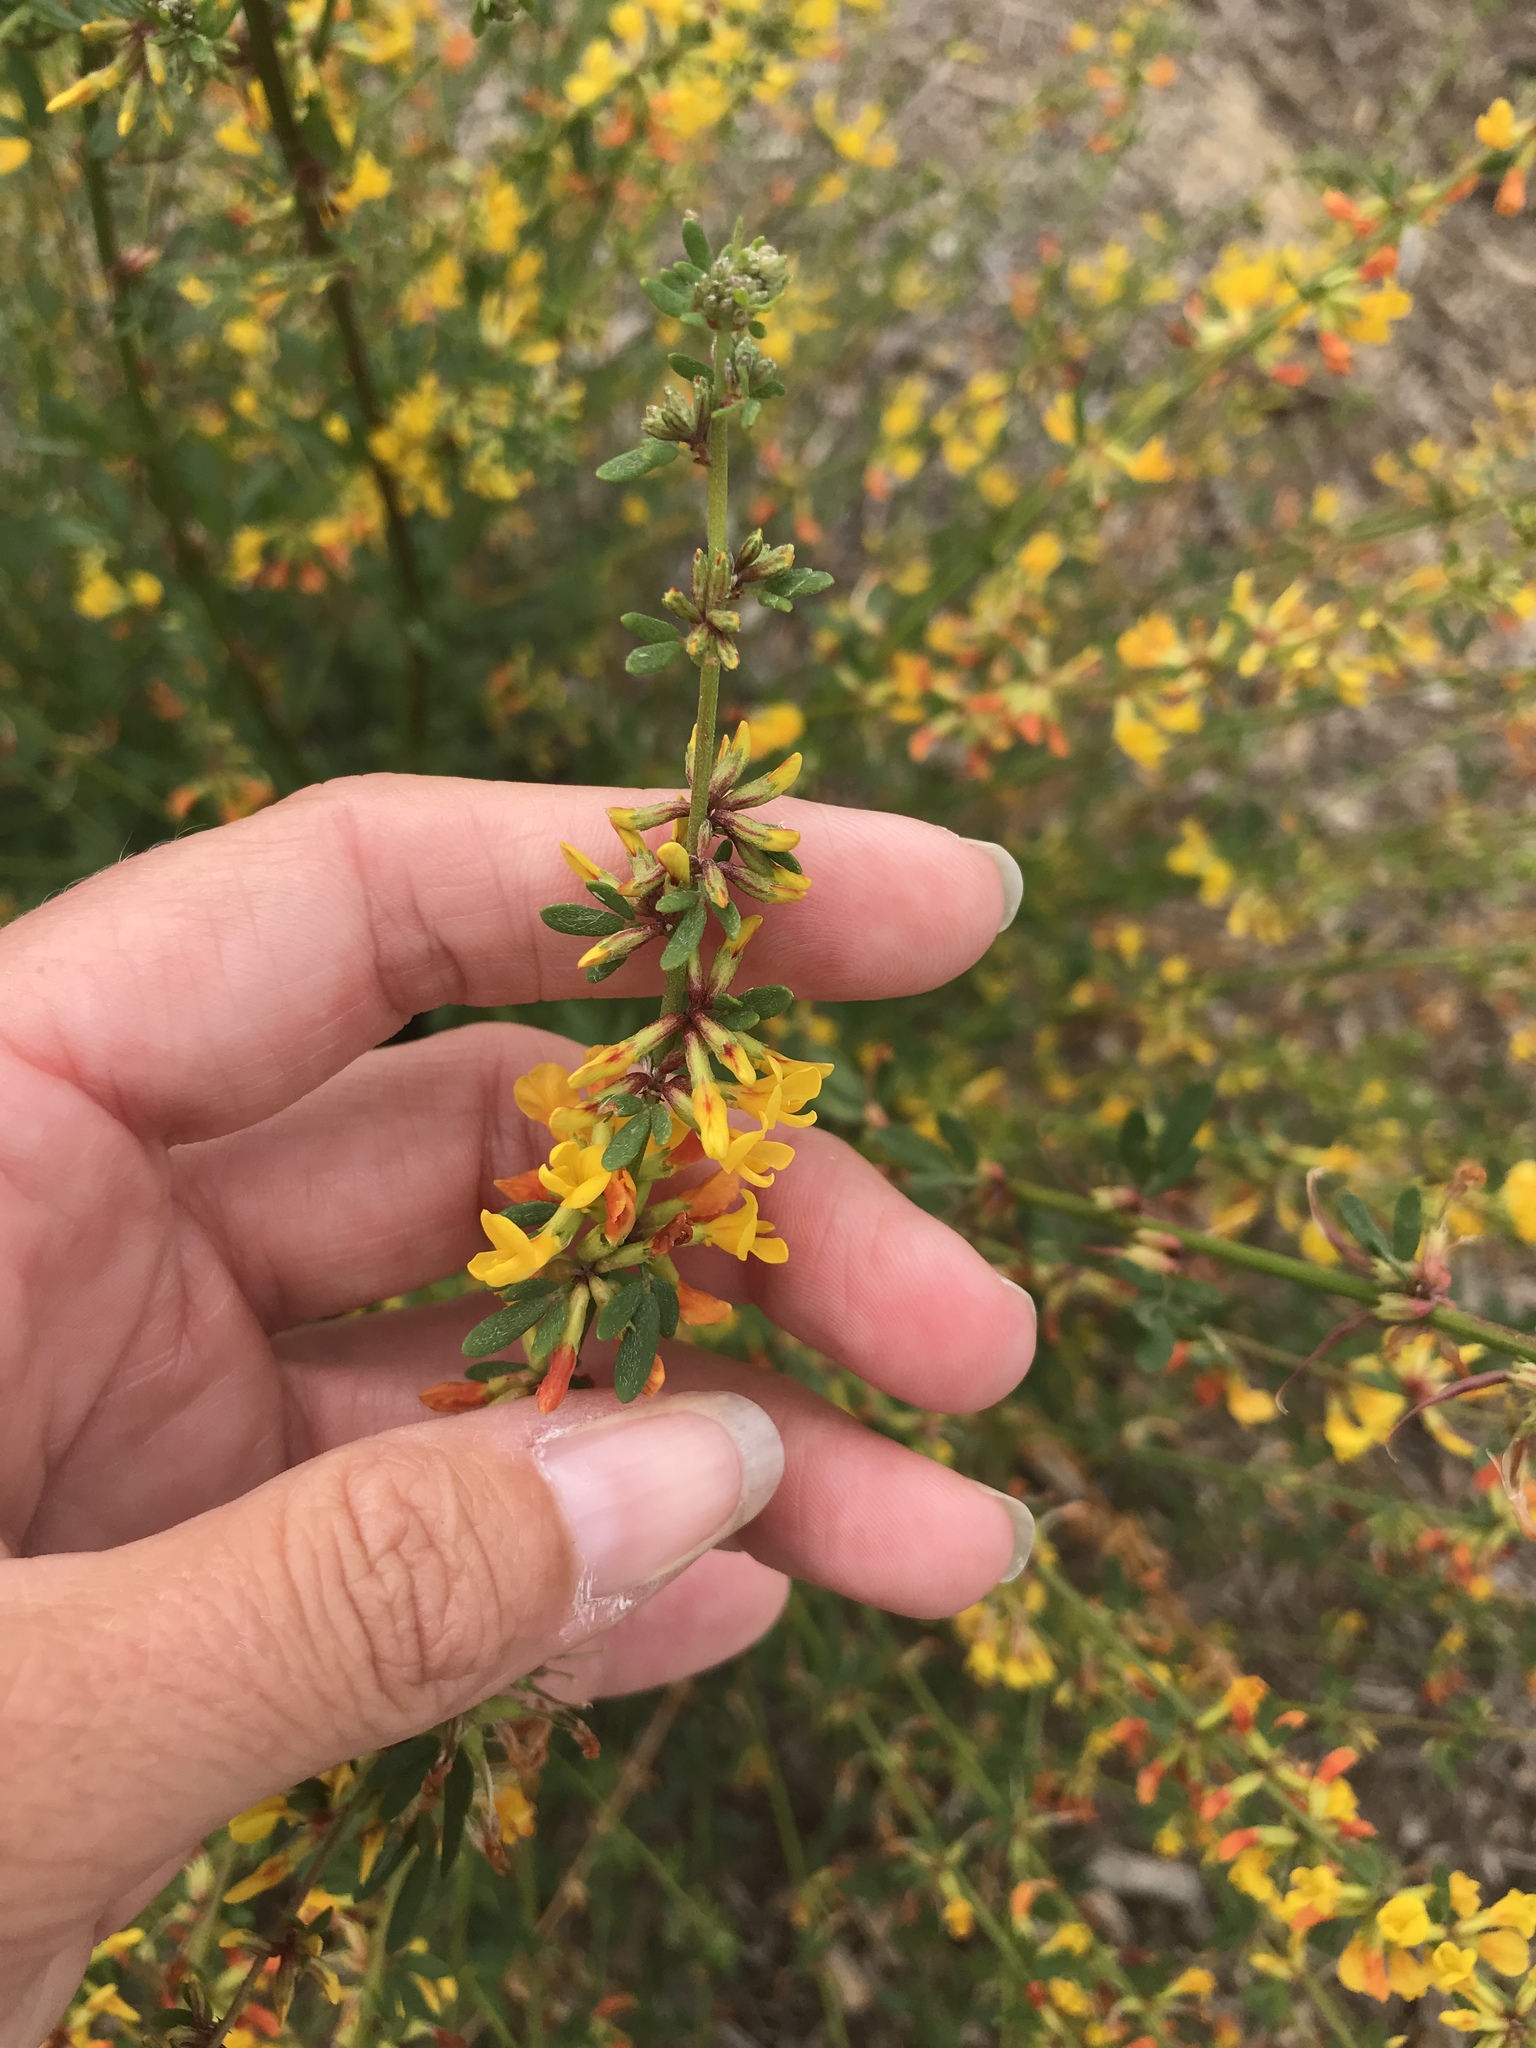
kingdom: Plantae
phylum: Tracheophyta
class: Magnoliopsida
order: Fabales
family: Fabaceae
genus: Acmispon
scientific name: Acmispon glaber
